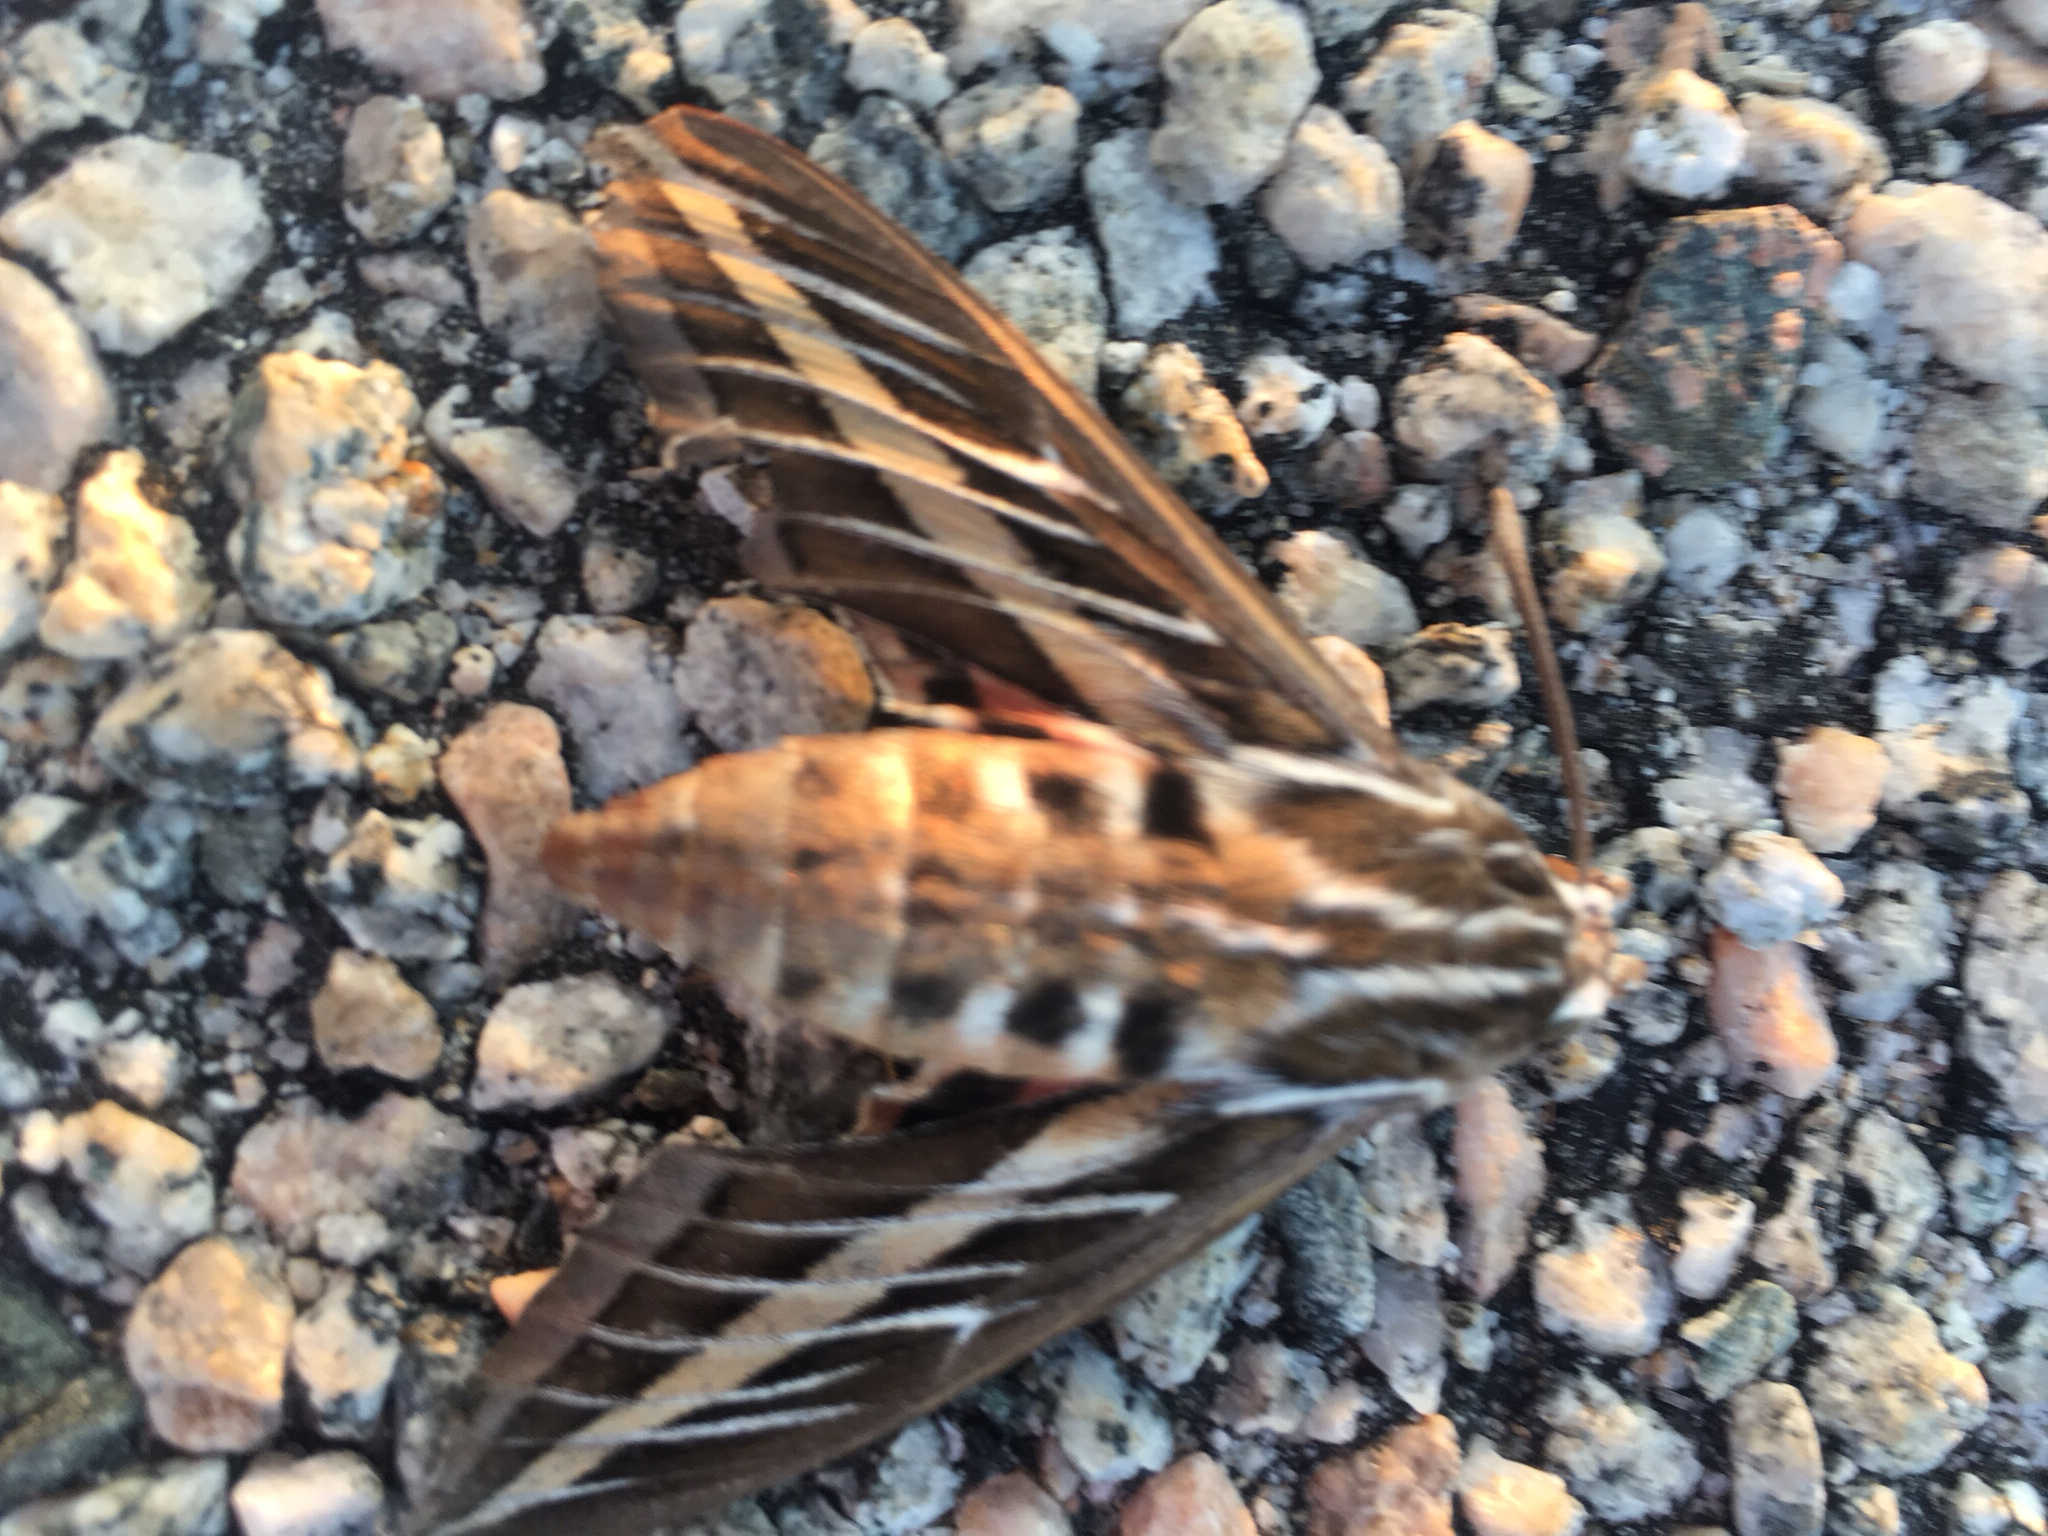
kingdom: Animalia
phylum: Arthropoda
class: Insecta
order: Lepidoptera
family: Sphingidae
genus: Hyles
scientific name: Hyles lineata
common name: White-lined sphinx
